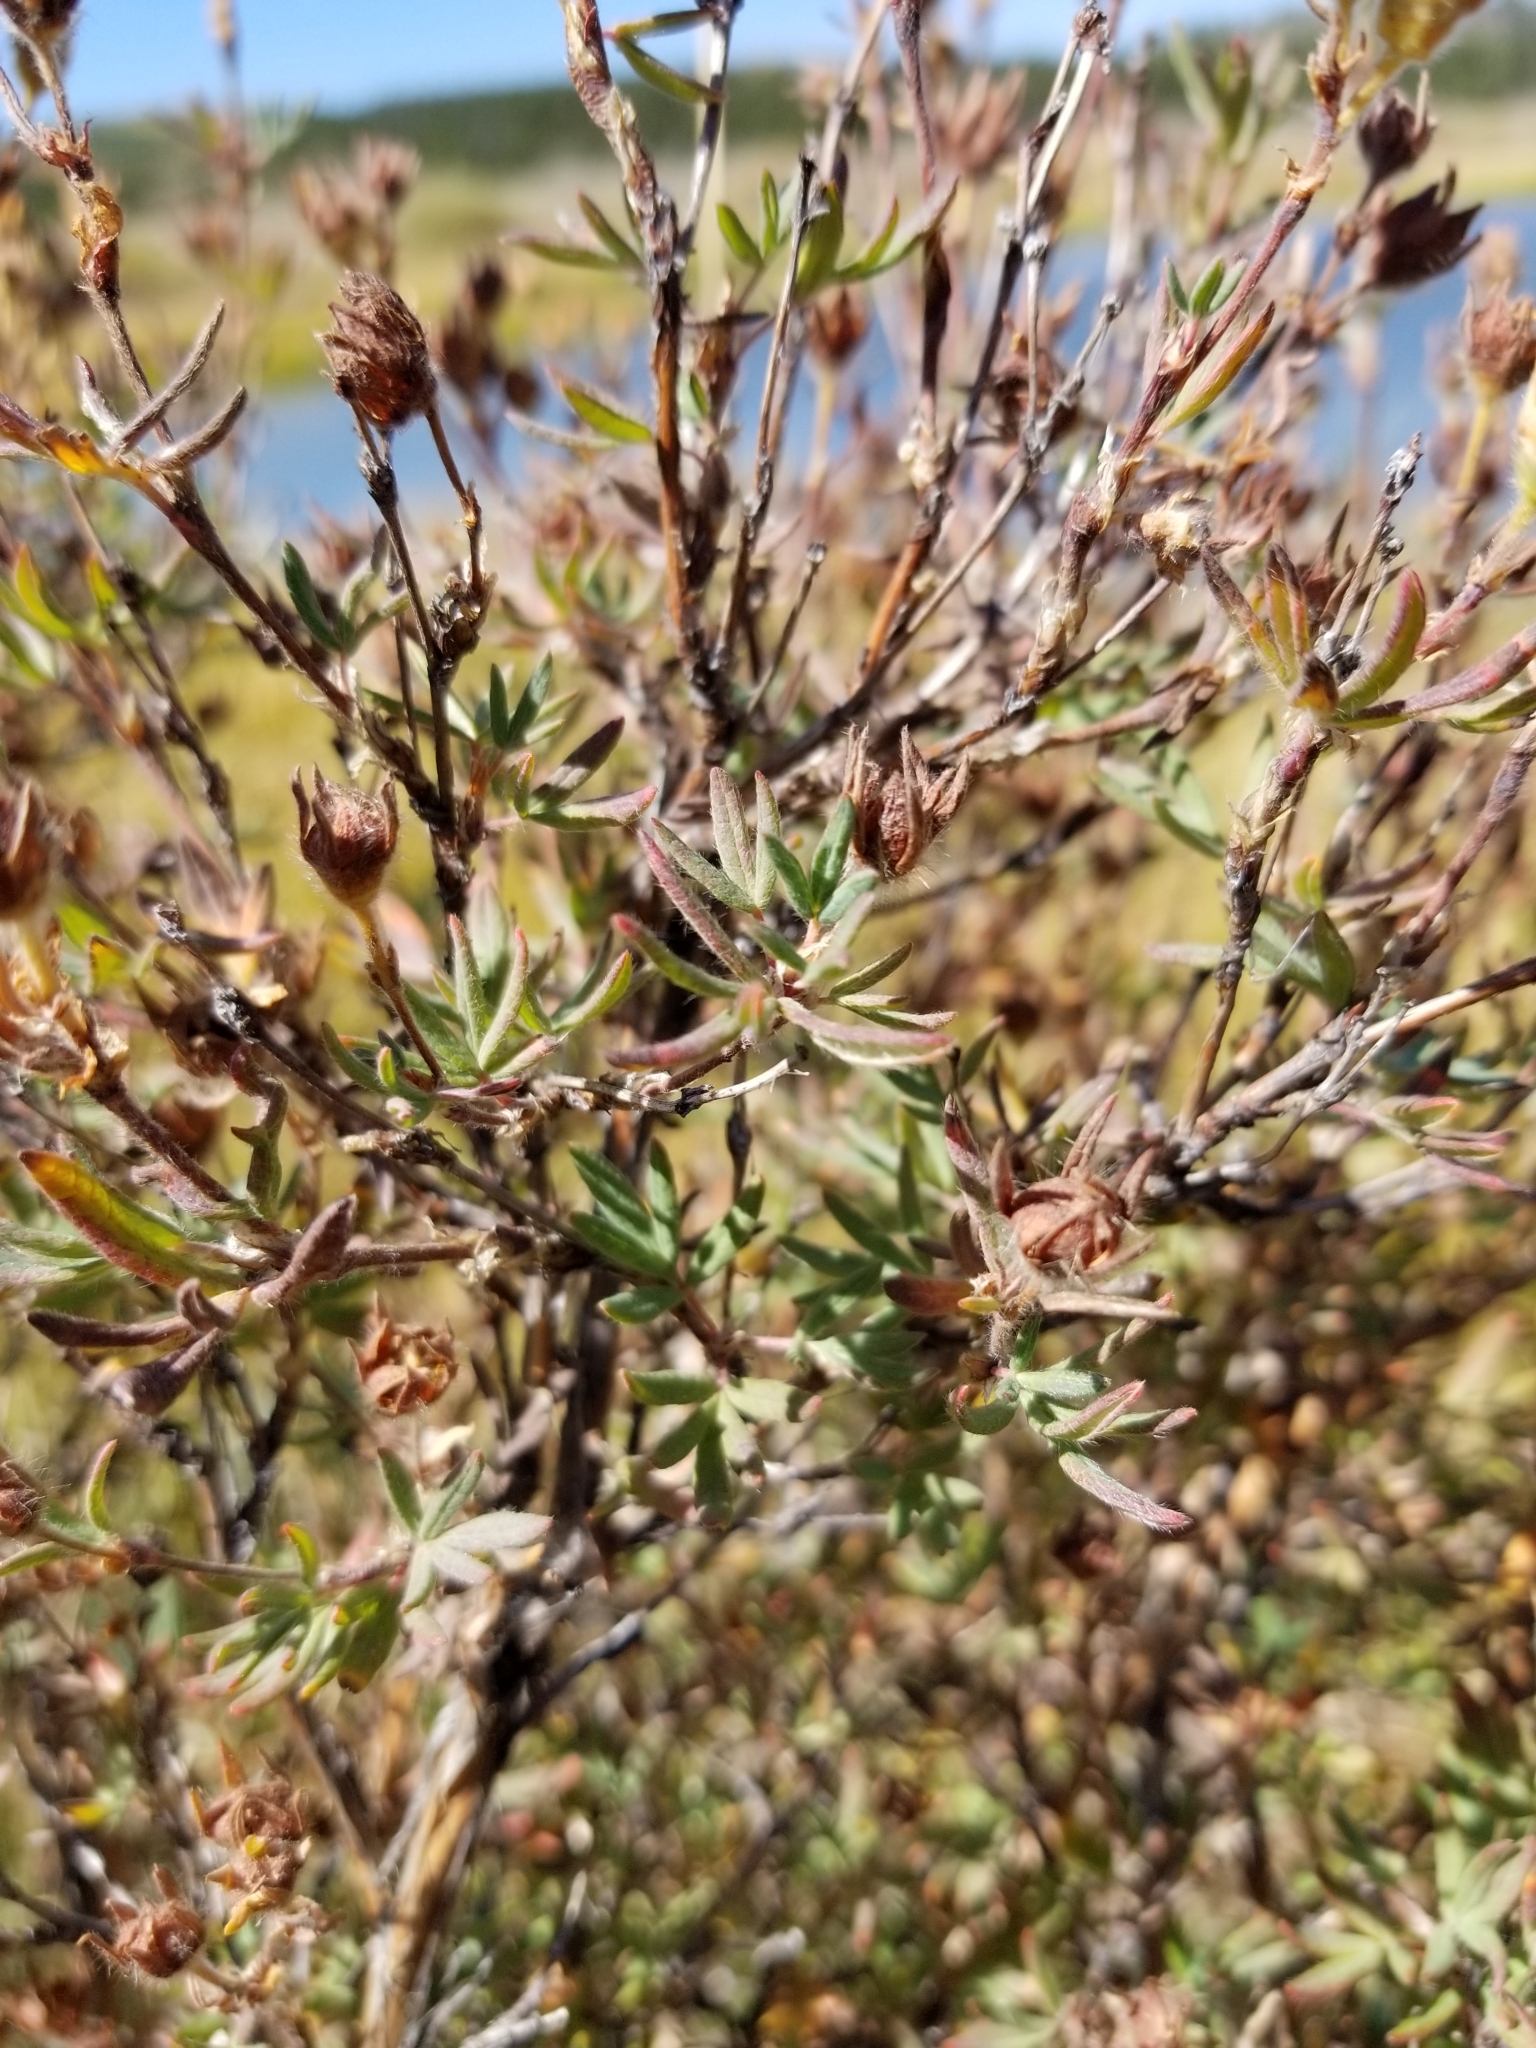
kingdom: Plantae
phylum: Tracheophyta
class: Magnoliopsida
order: Rosales
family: Rosaceae
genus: Dasiphora
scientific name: Dasiphora fruticosa
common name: Shrubby cinquefoil
